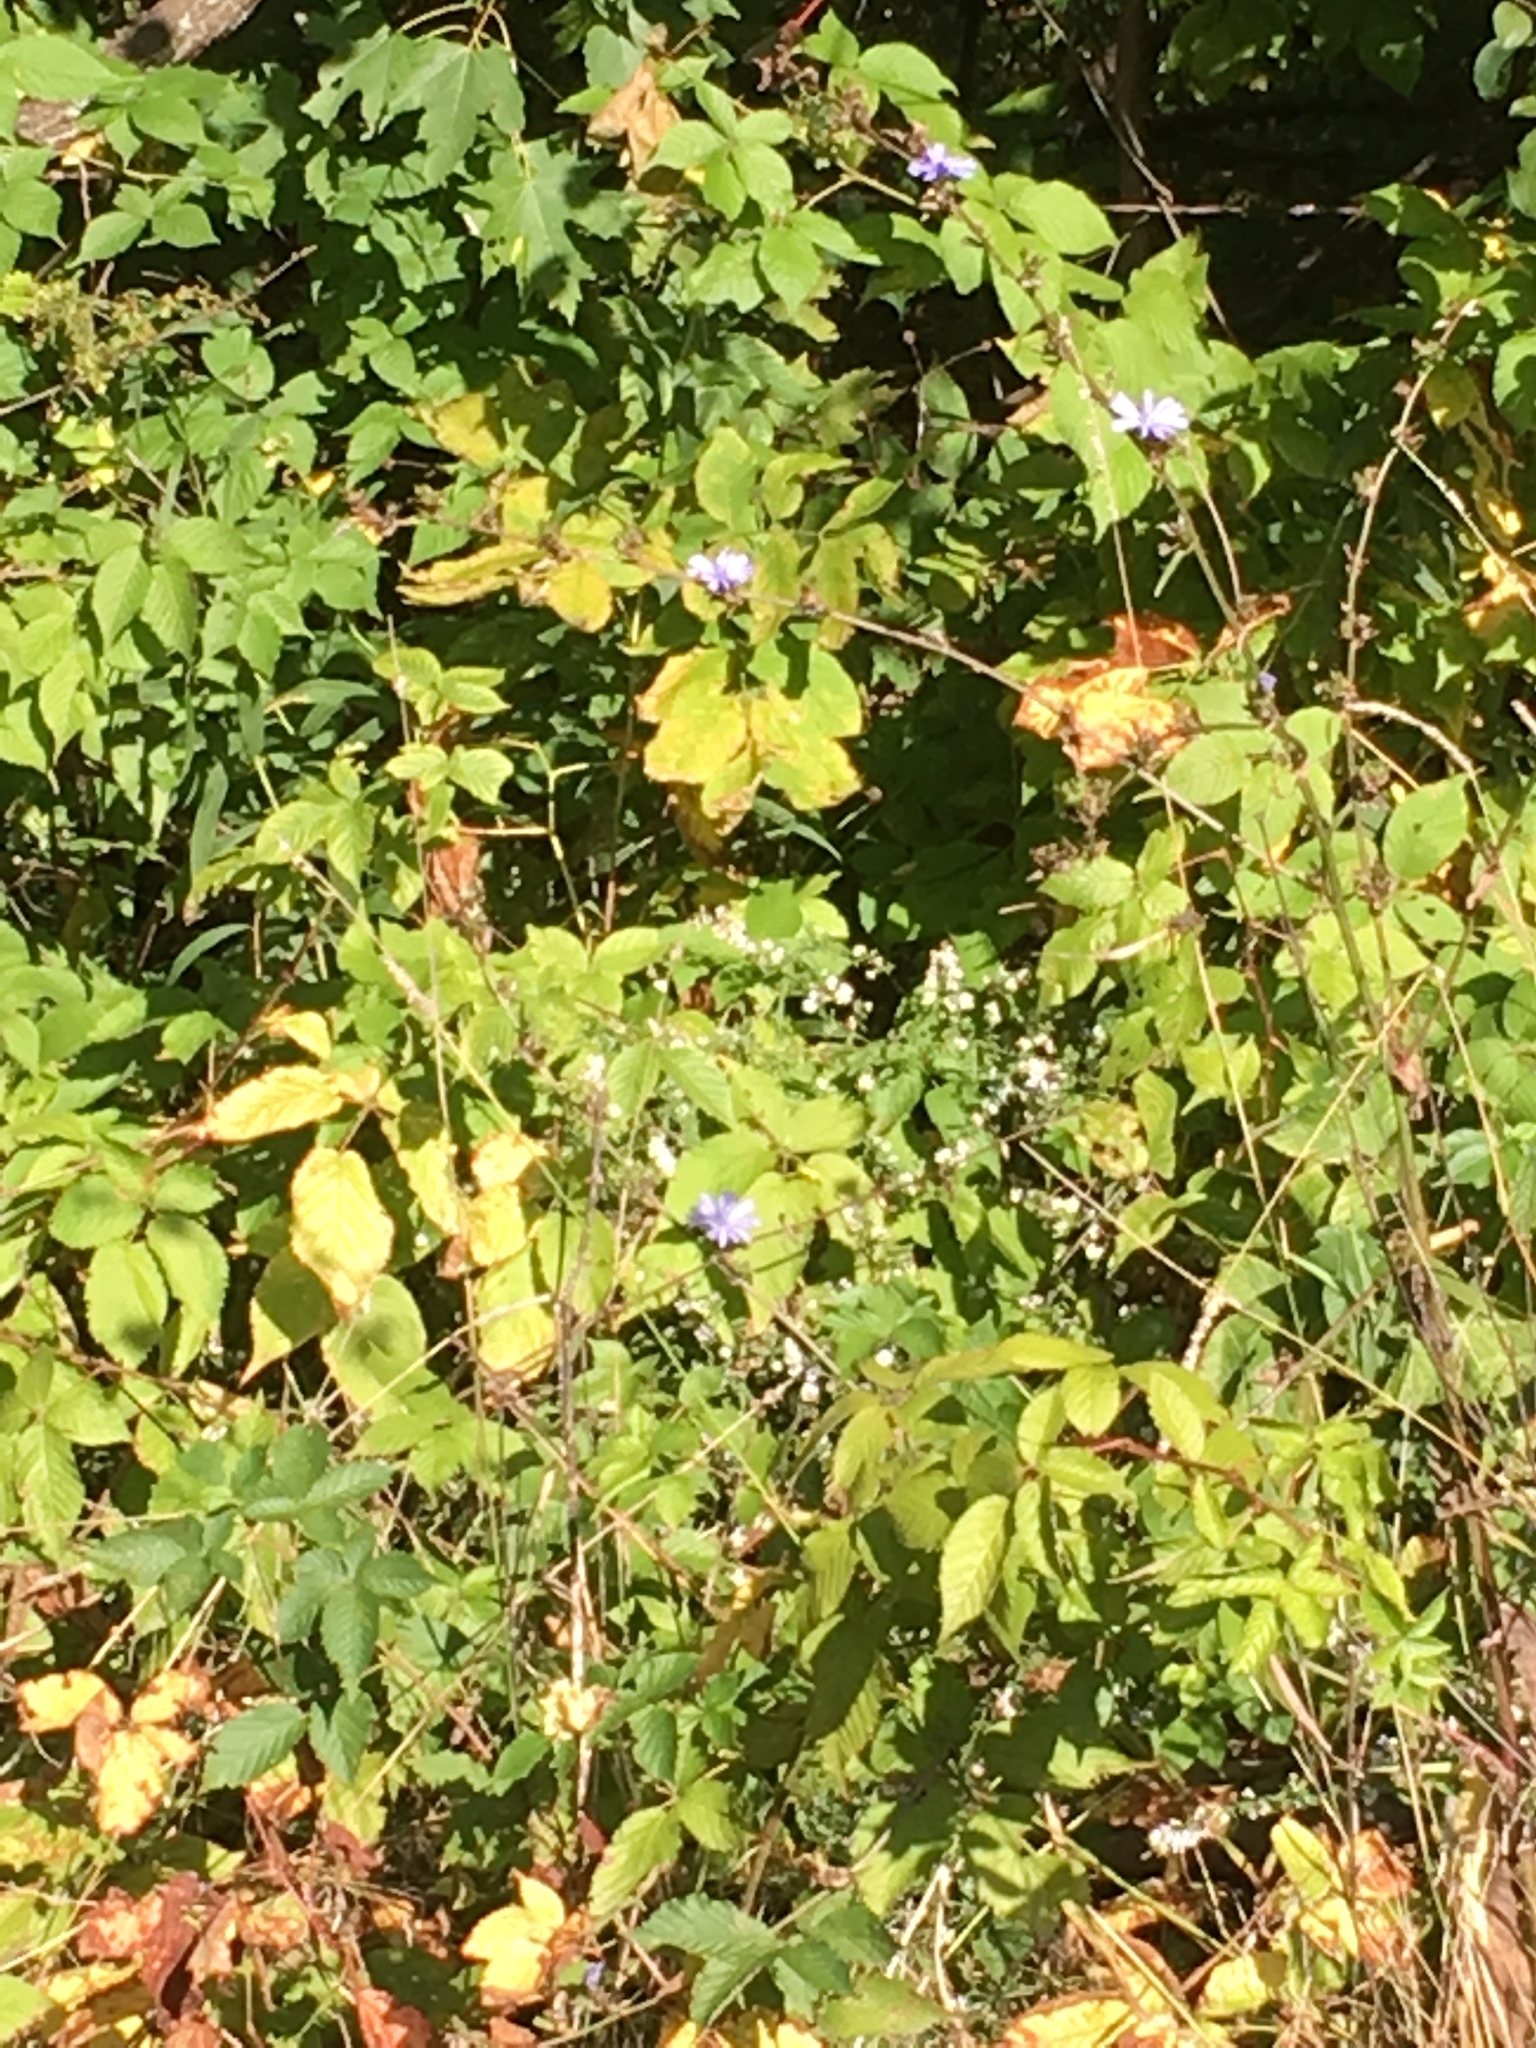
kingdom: Plantae
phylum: Tracheophyta
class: Magnoliopsida
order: Asterales
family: Asteraceae
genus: Cichorium
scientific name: Cichorium intybus
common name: Chicory
